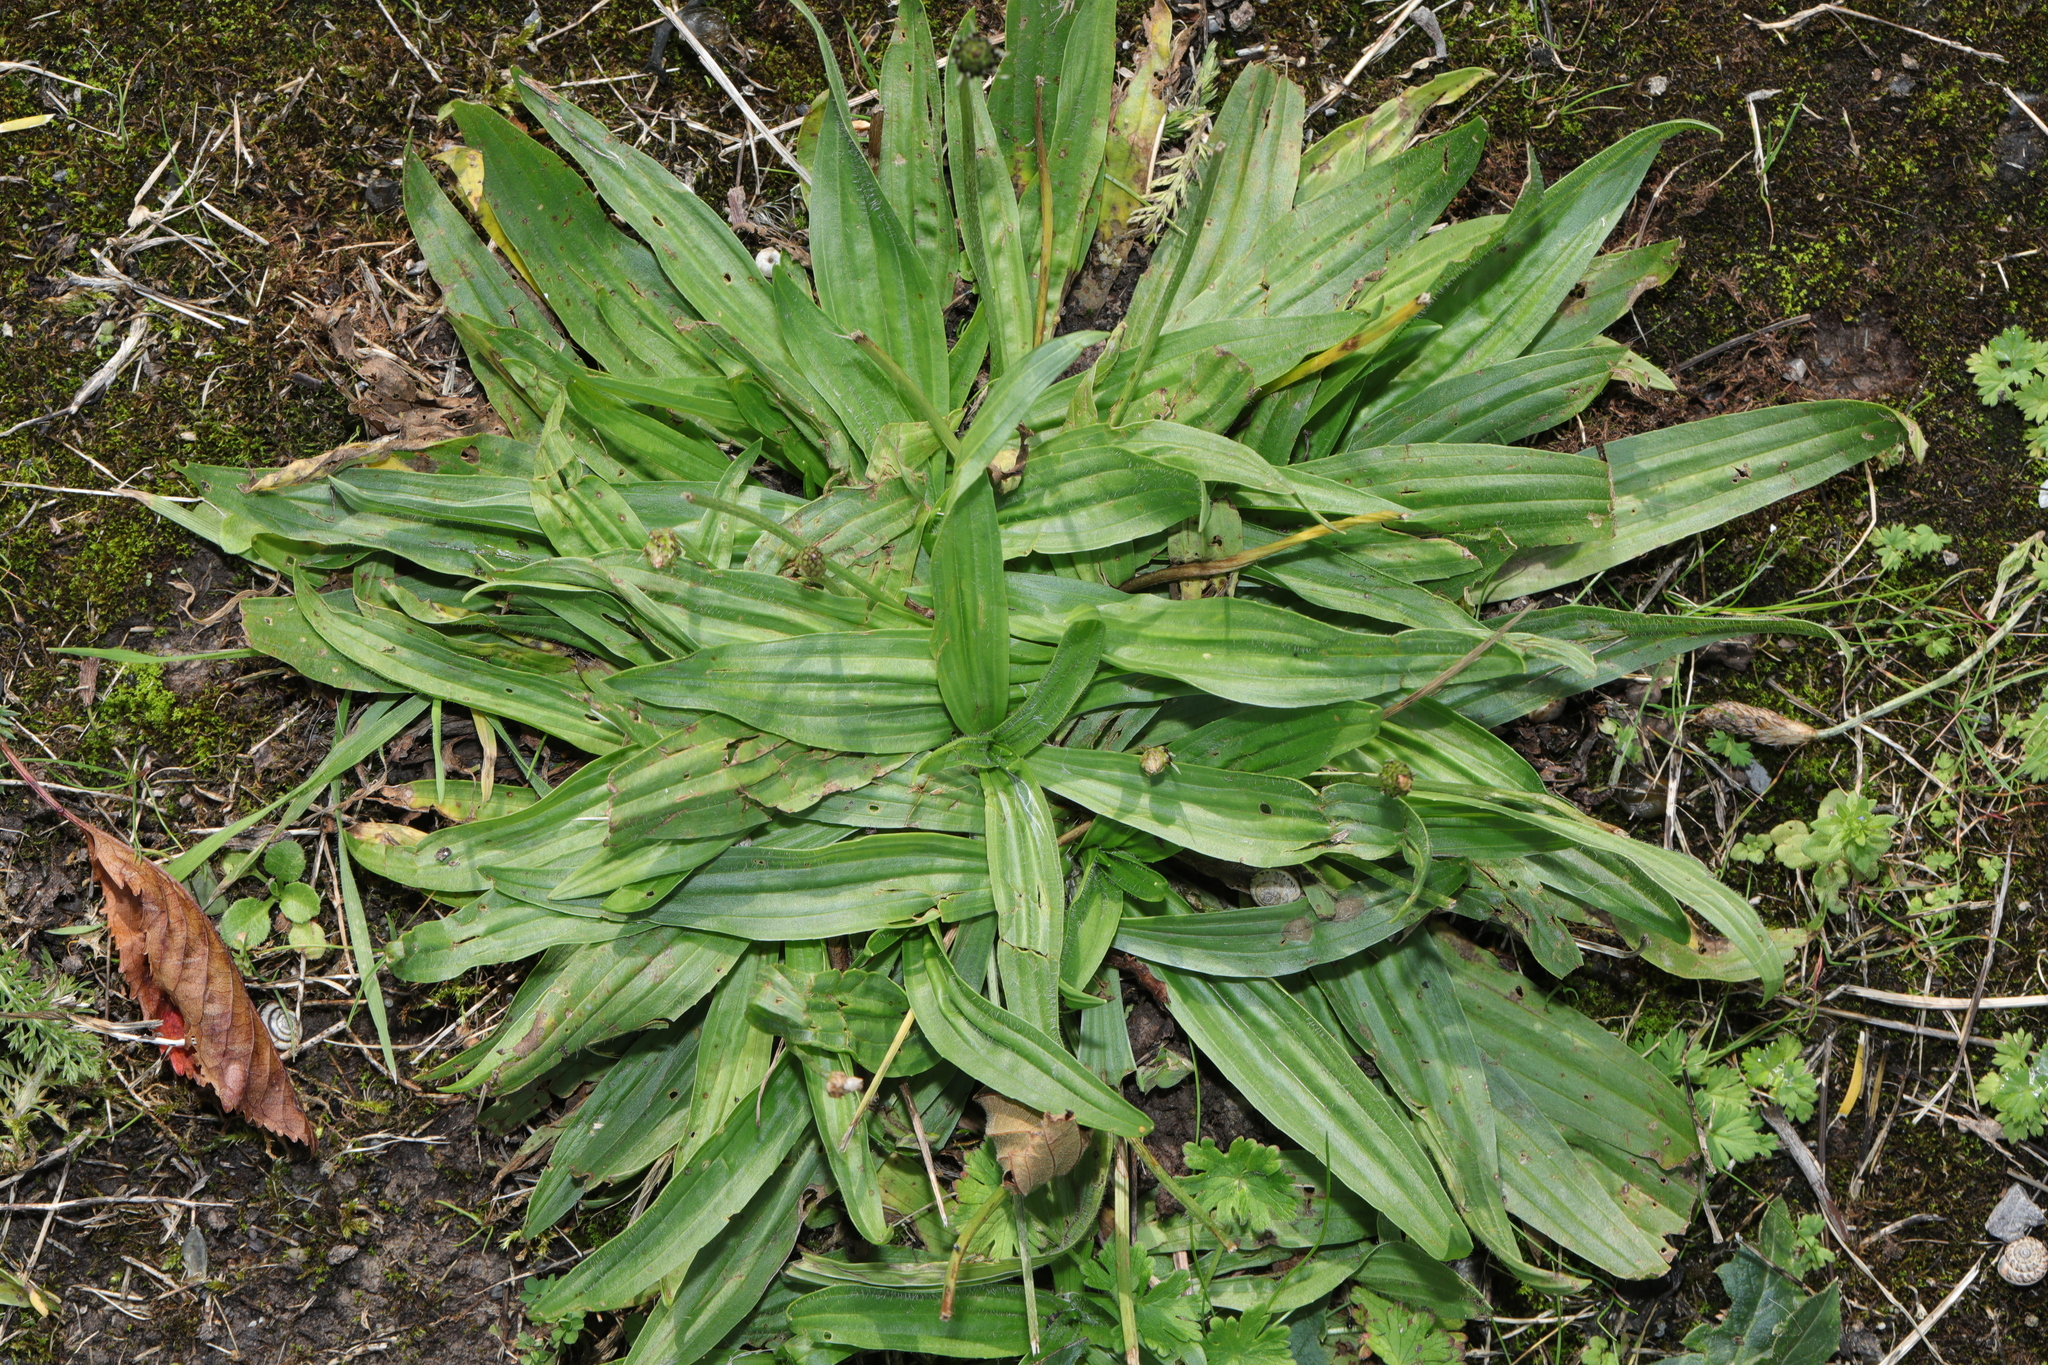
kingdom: Plantae
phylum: Tracheophyta
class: Magnoliopsida
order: Lamiales
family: Plantaginaceae
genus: Plantago
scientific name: Plantago lanceolata
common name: Ribwort plantain
